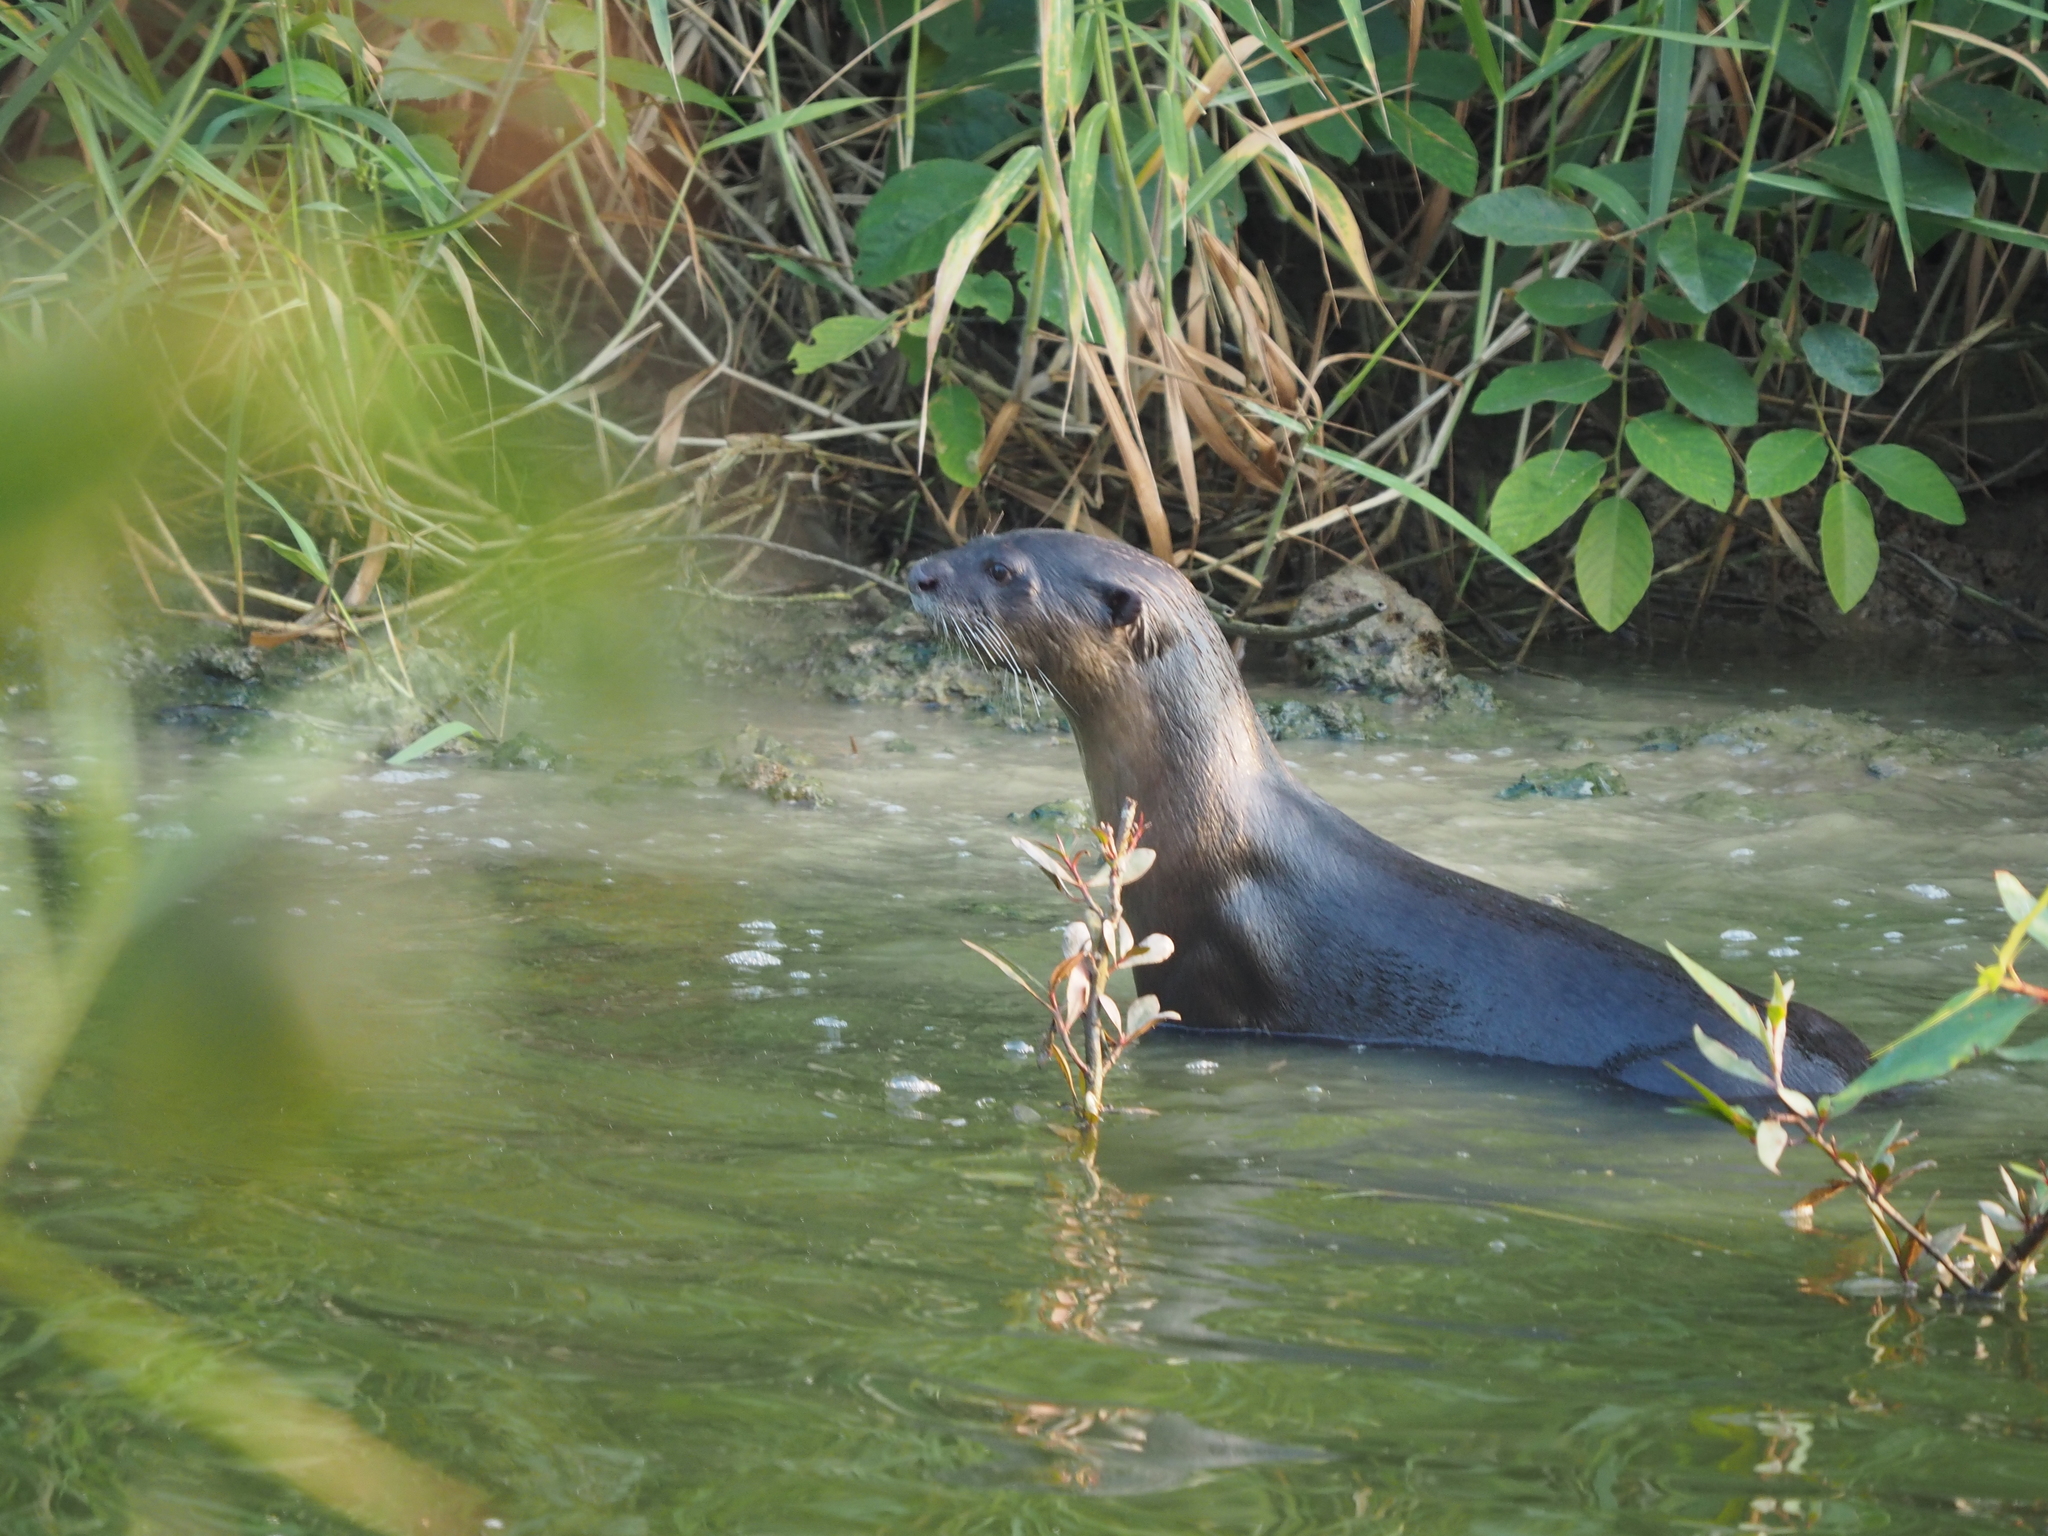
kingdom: Animalia
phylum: Chordata
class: Mammalia
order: Carnivora
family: Mustelidae
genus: Lutrogale
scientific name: Lutrogale perspicillata
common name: Smooth-coated otter
